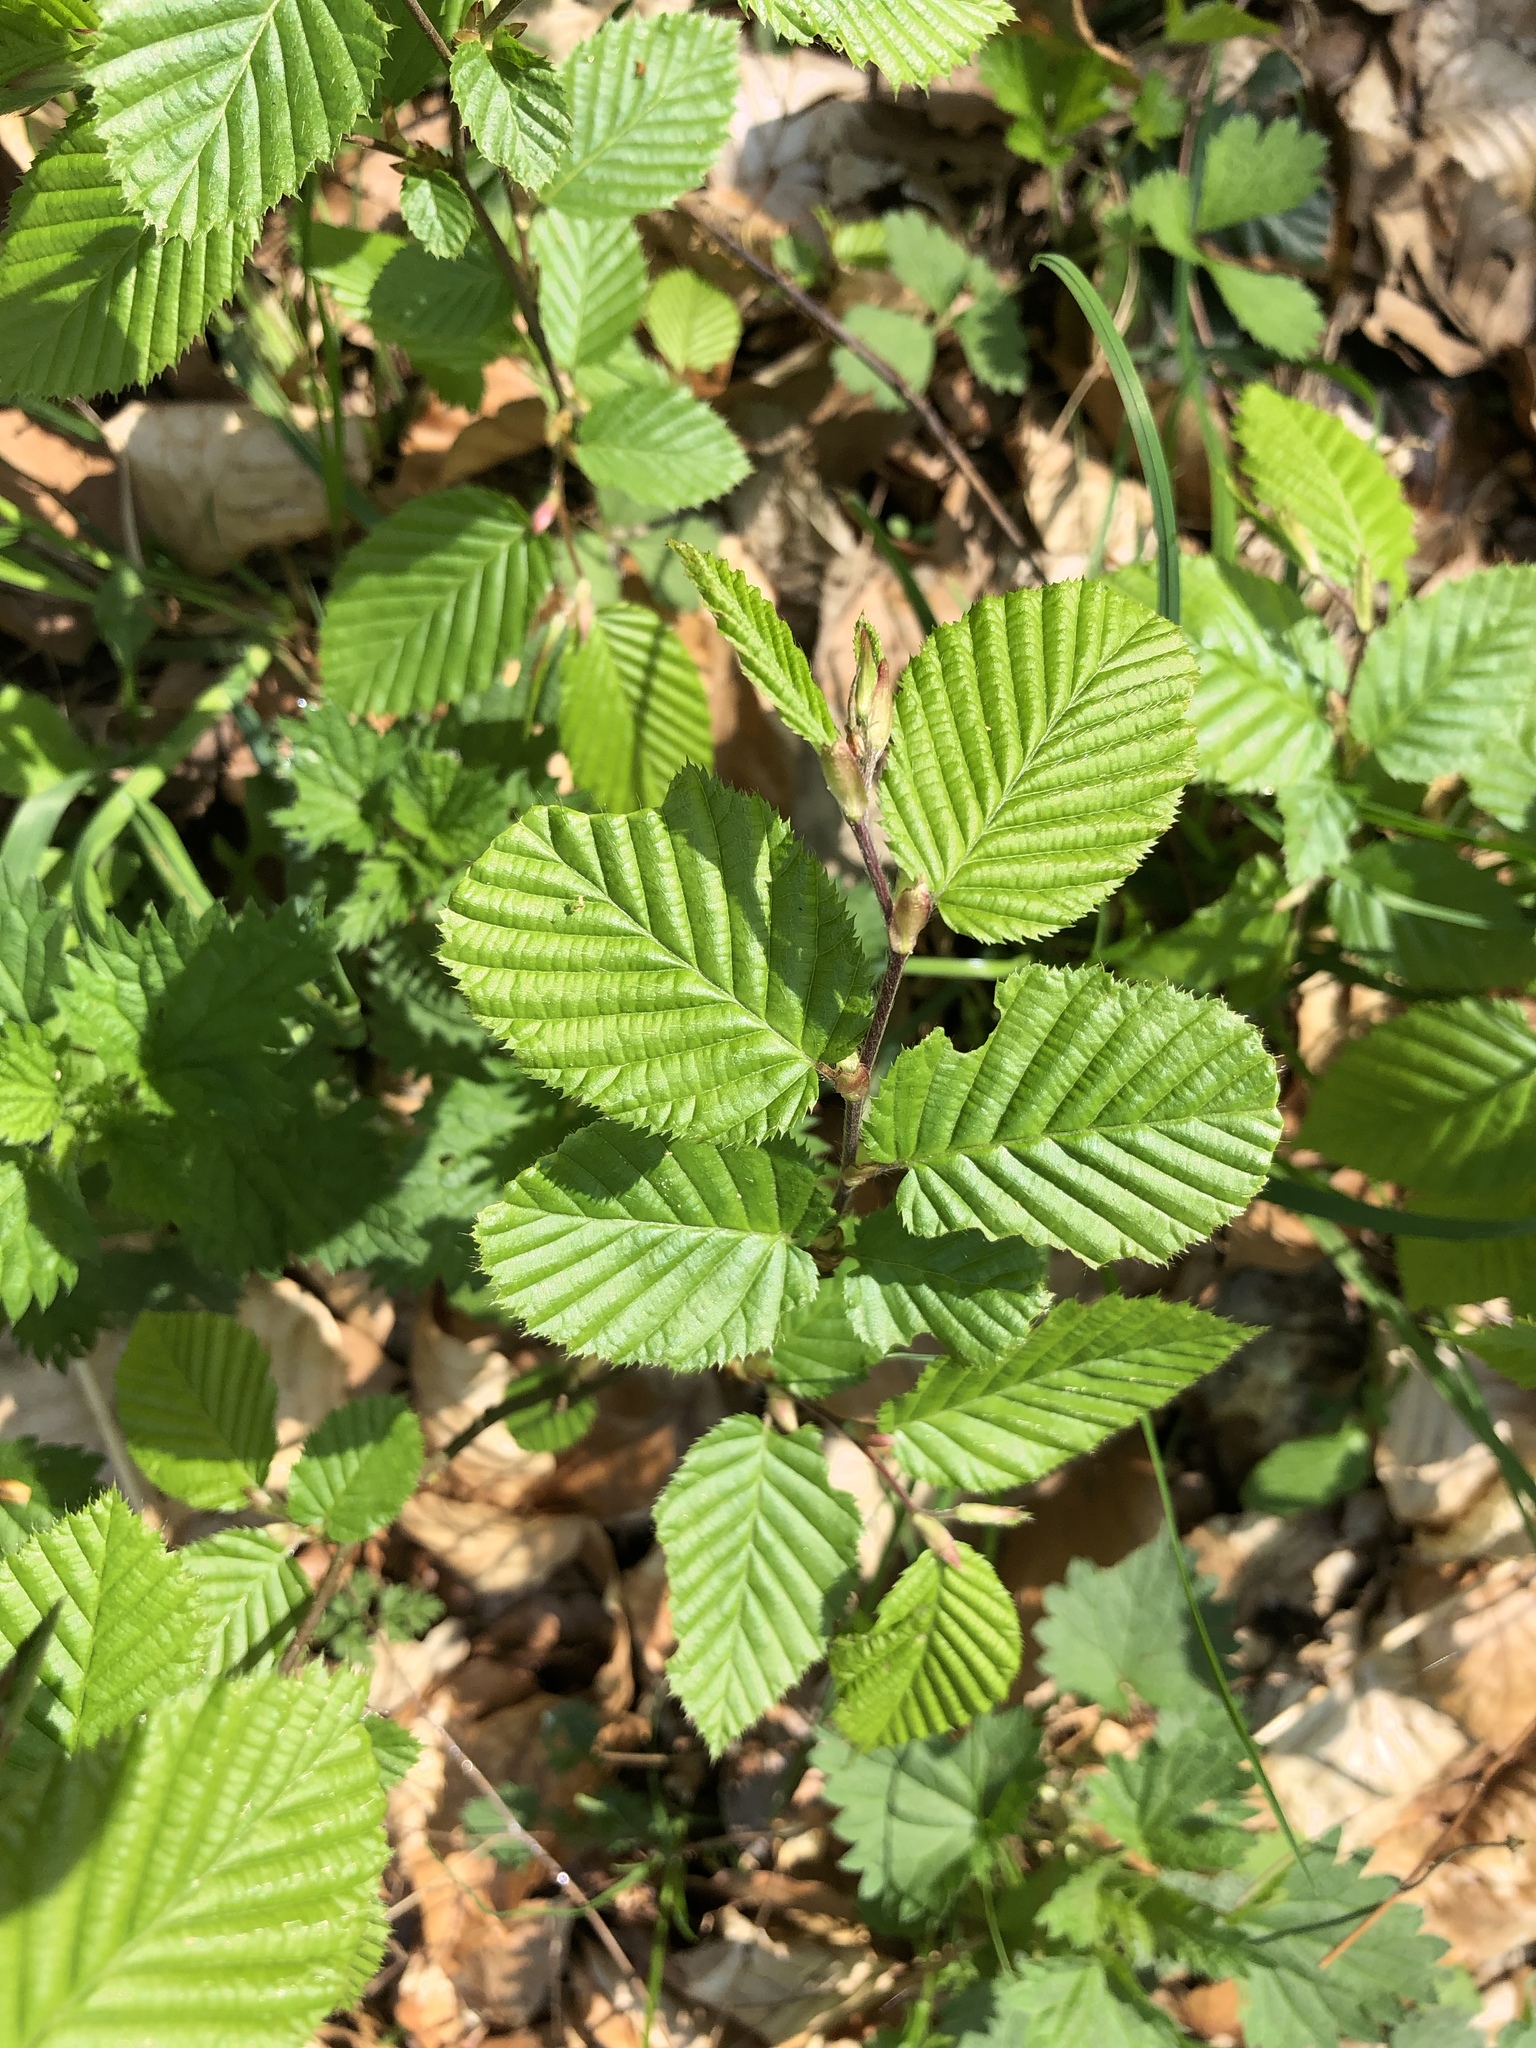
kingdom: Plantae
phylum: Tracheophyta
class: Magnoliopsida
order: Fagales
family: Betulaceae
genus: Carpinus
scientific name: Carpinus betulus
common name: Hornbeam
